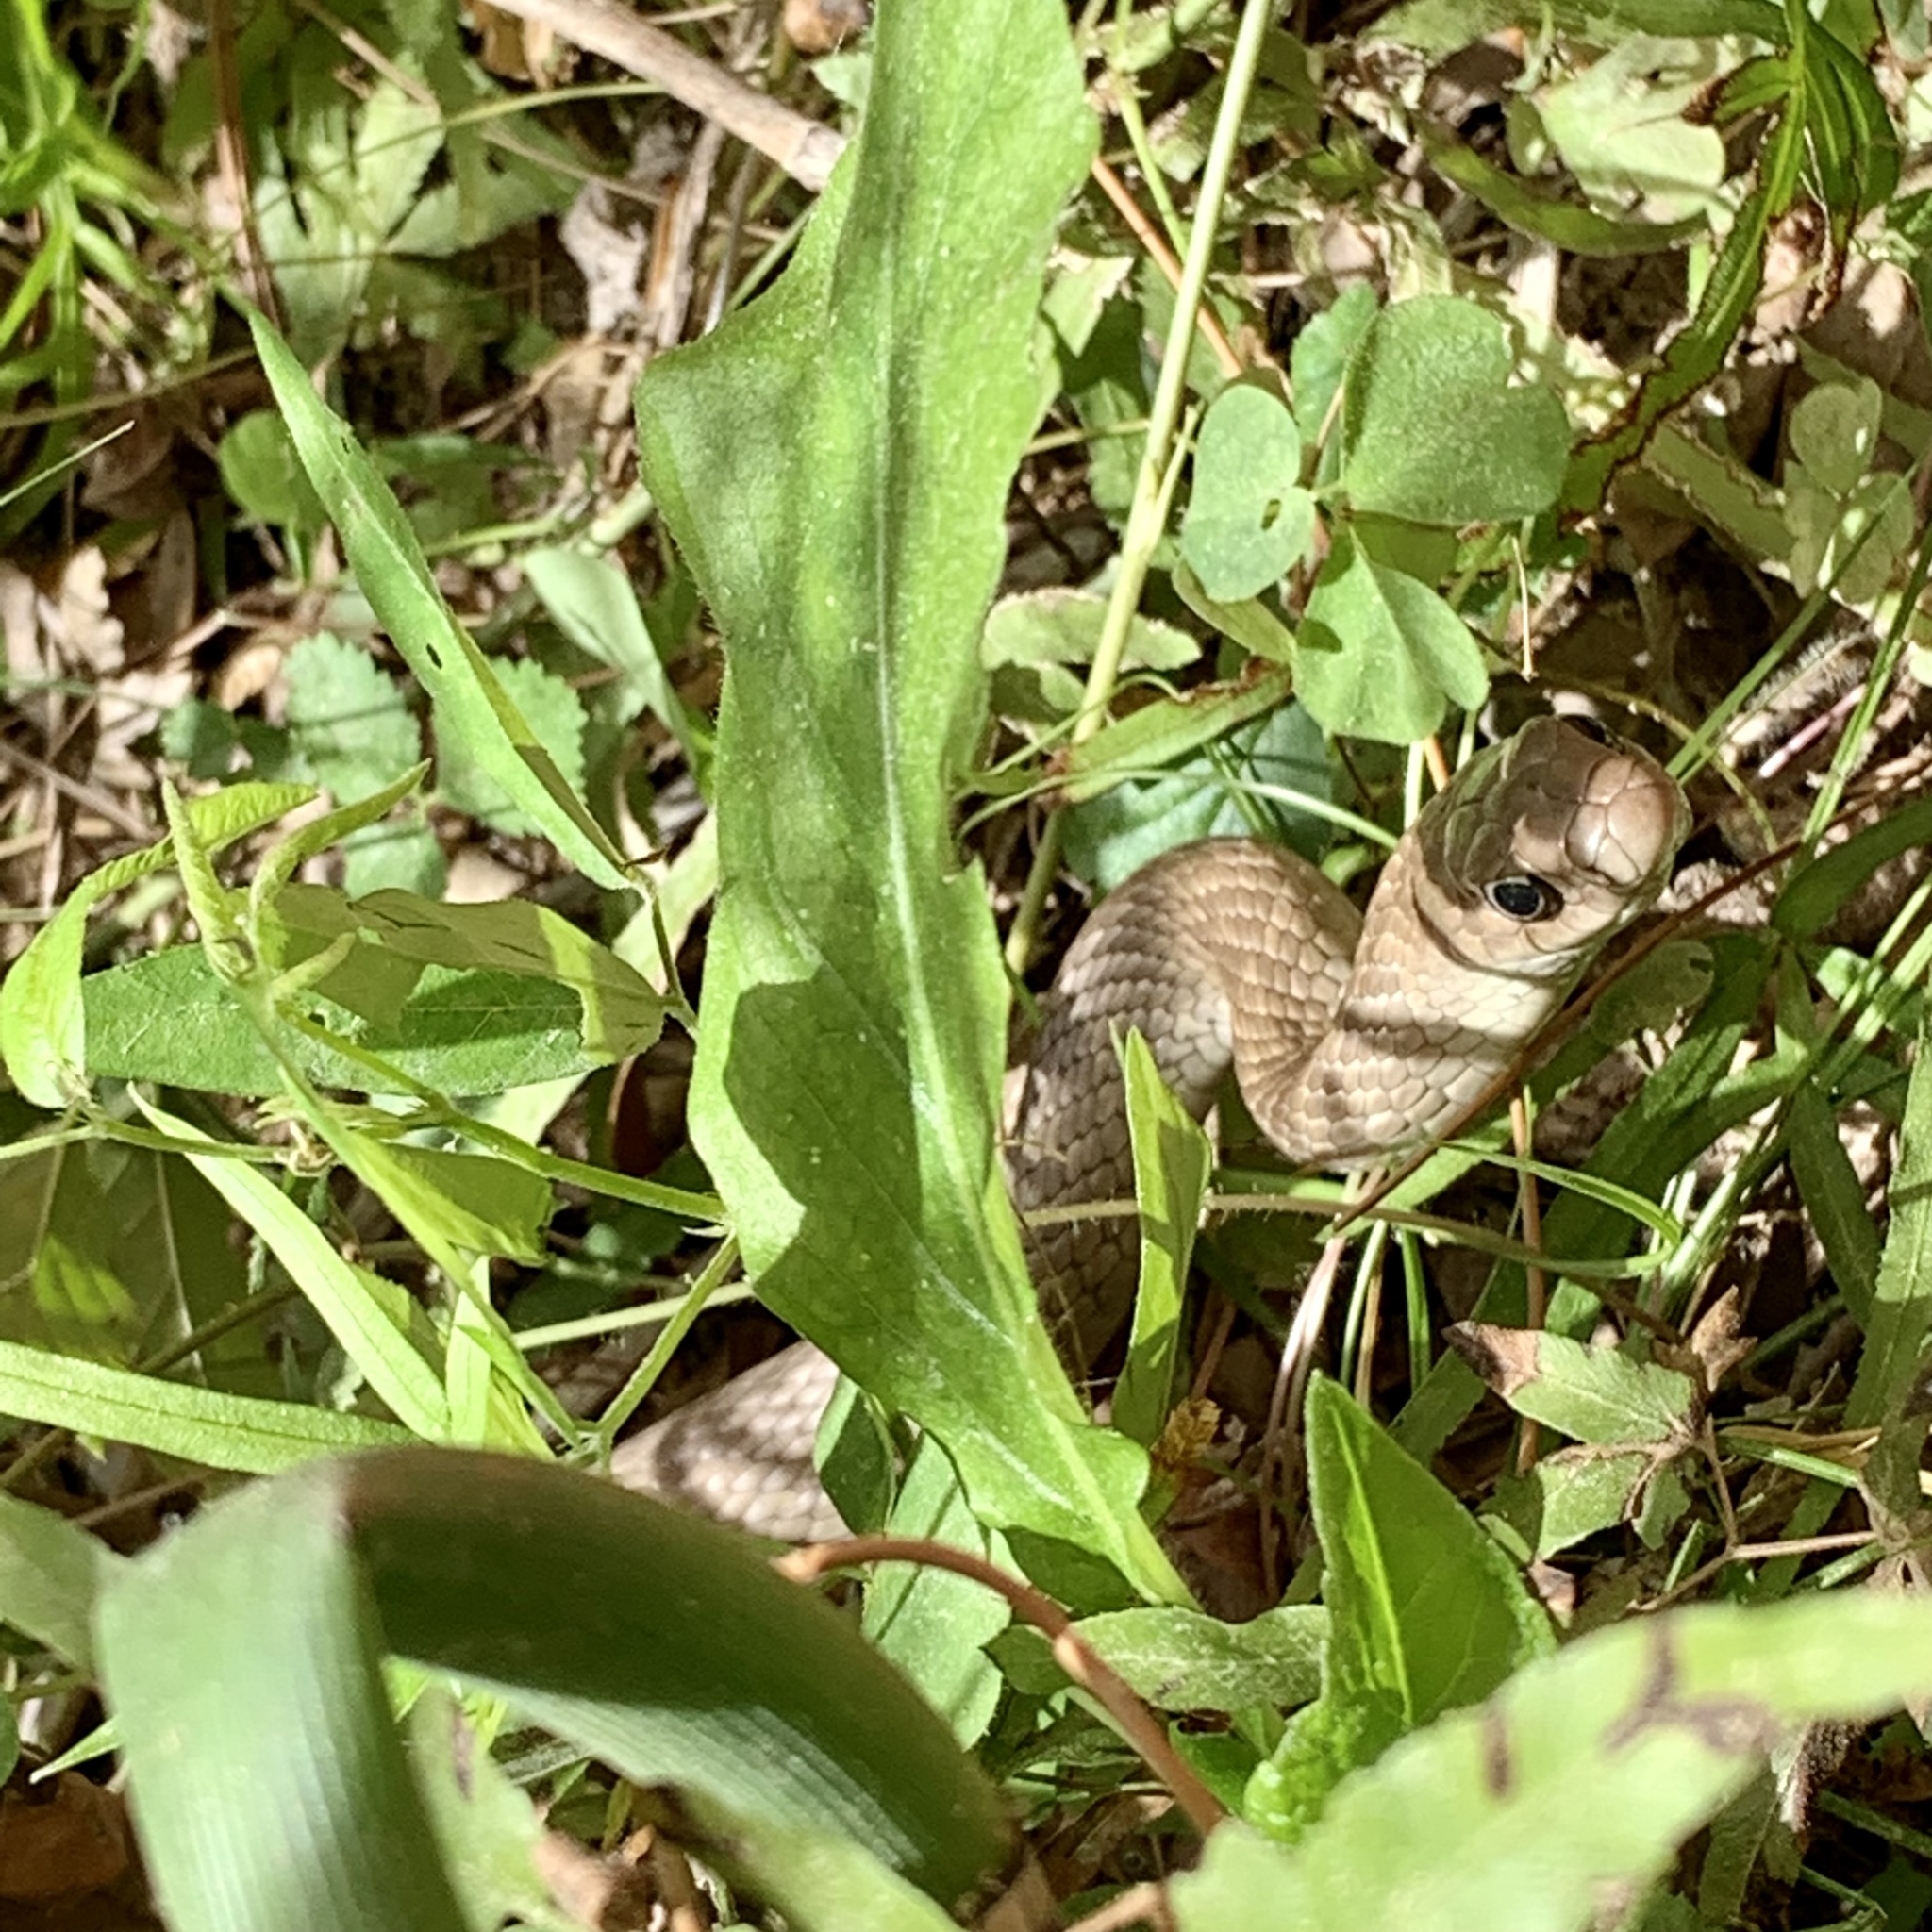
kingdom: Animalia
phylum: Chordata
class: Squamata
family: Colubridae
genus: Coluber
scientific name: Coluber constrictor
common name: Eastern racer
